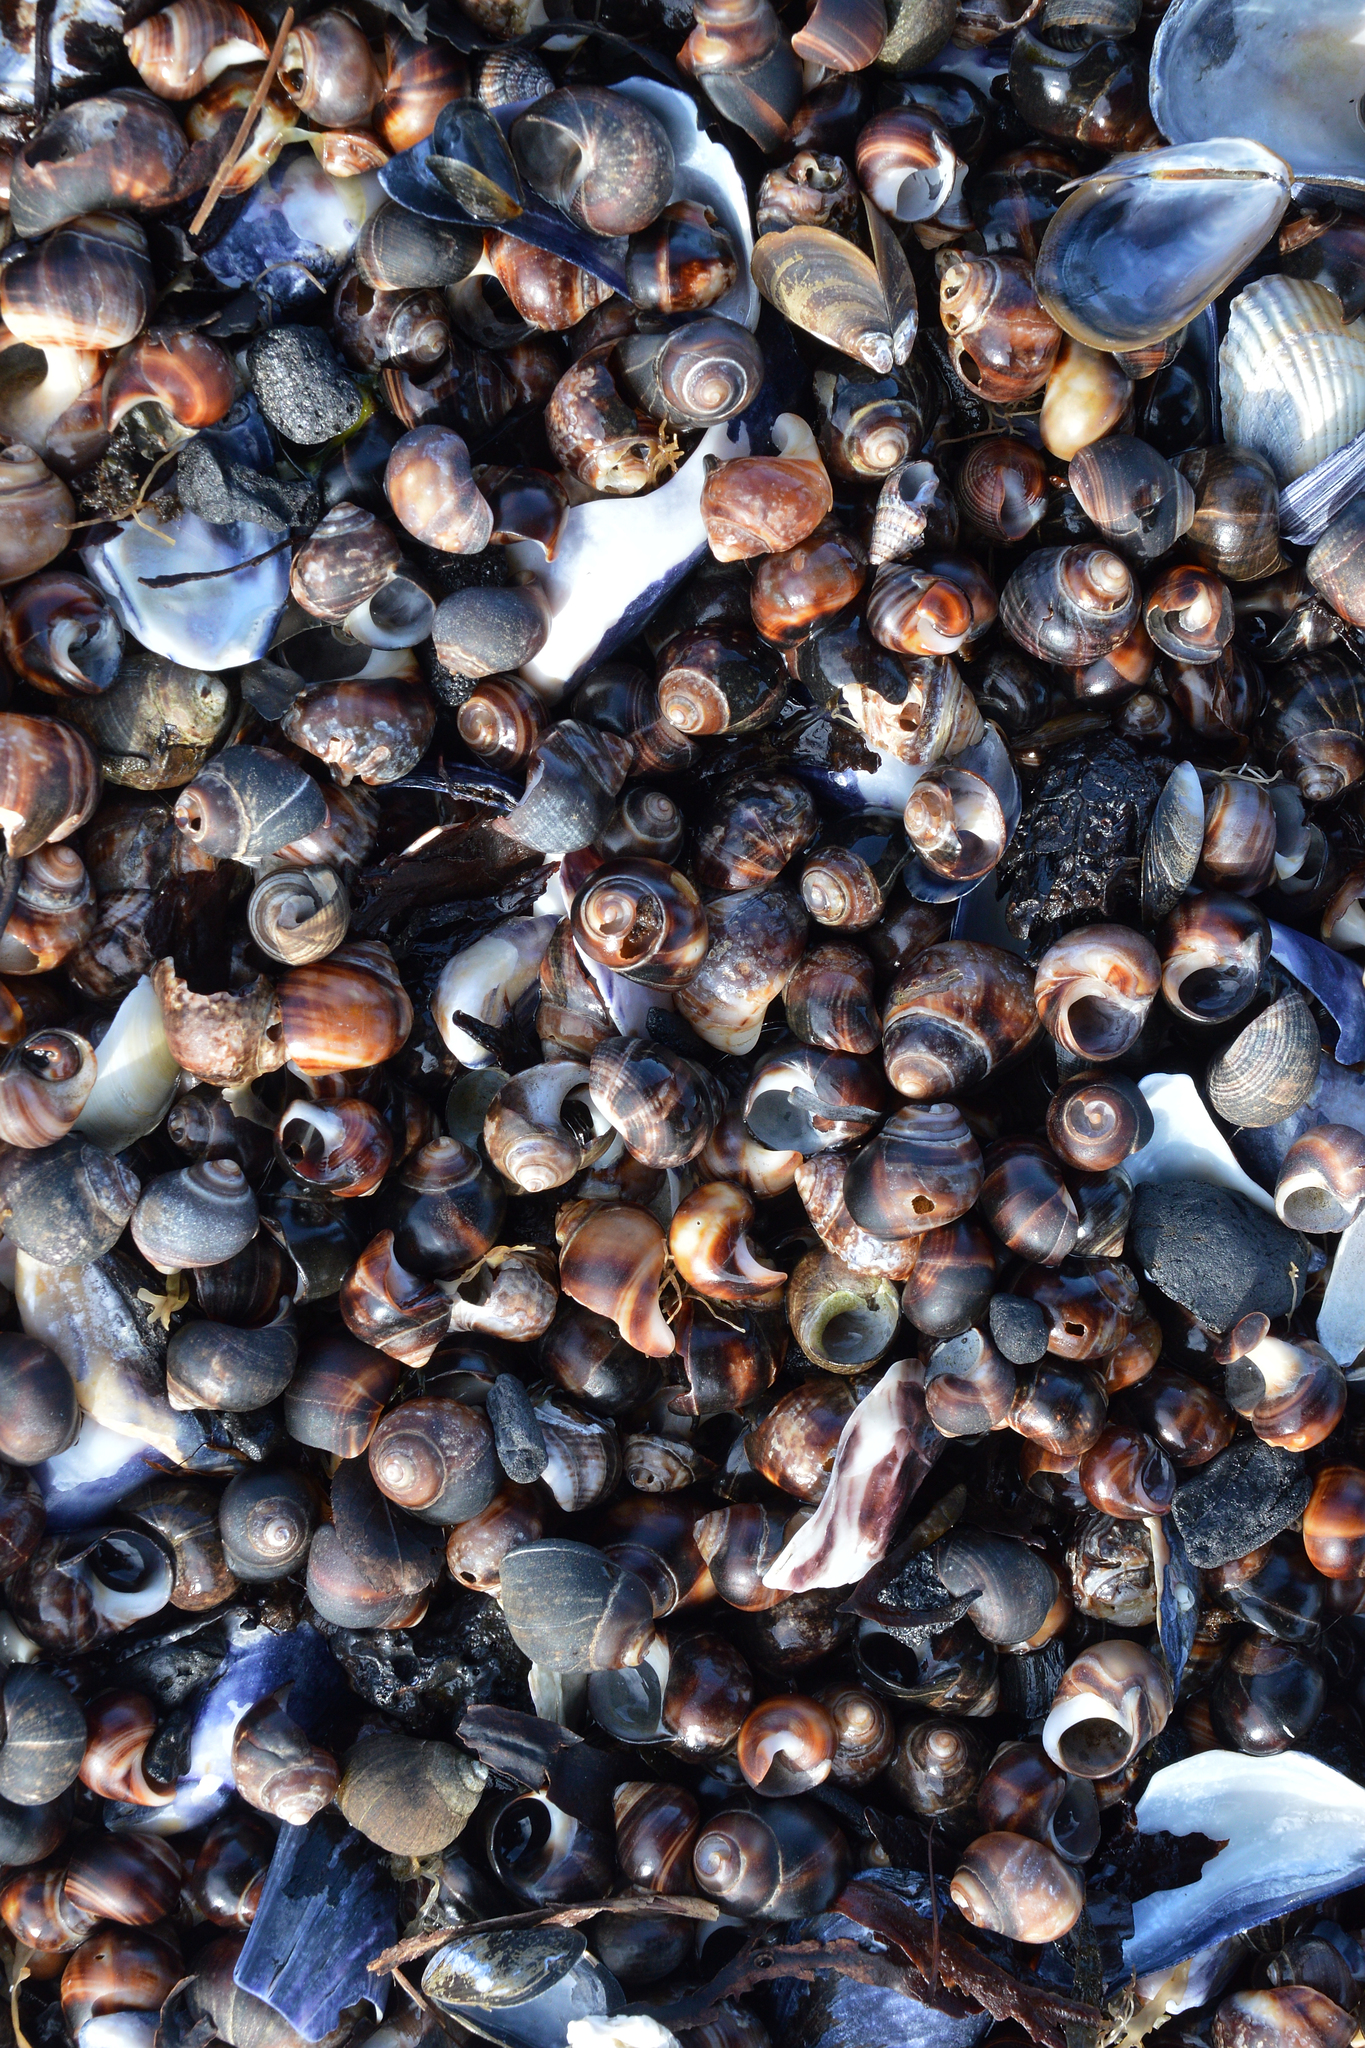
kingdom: Animalia
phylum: Mollusca
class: Gastropoda
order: Littorinimorpha
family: Littorinidae
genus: Littorina
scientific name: Littorina littorea
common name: Common periwinkle
